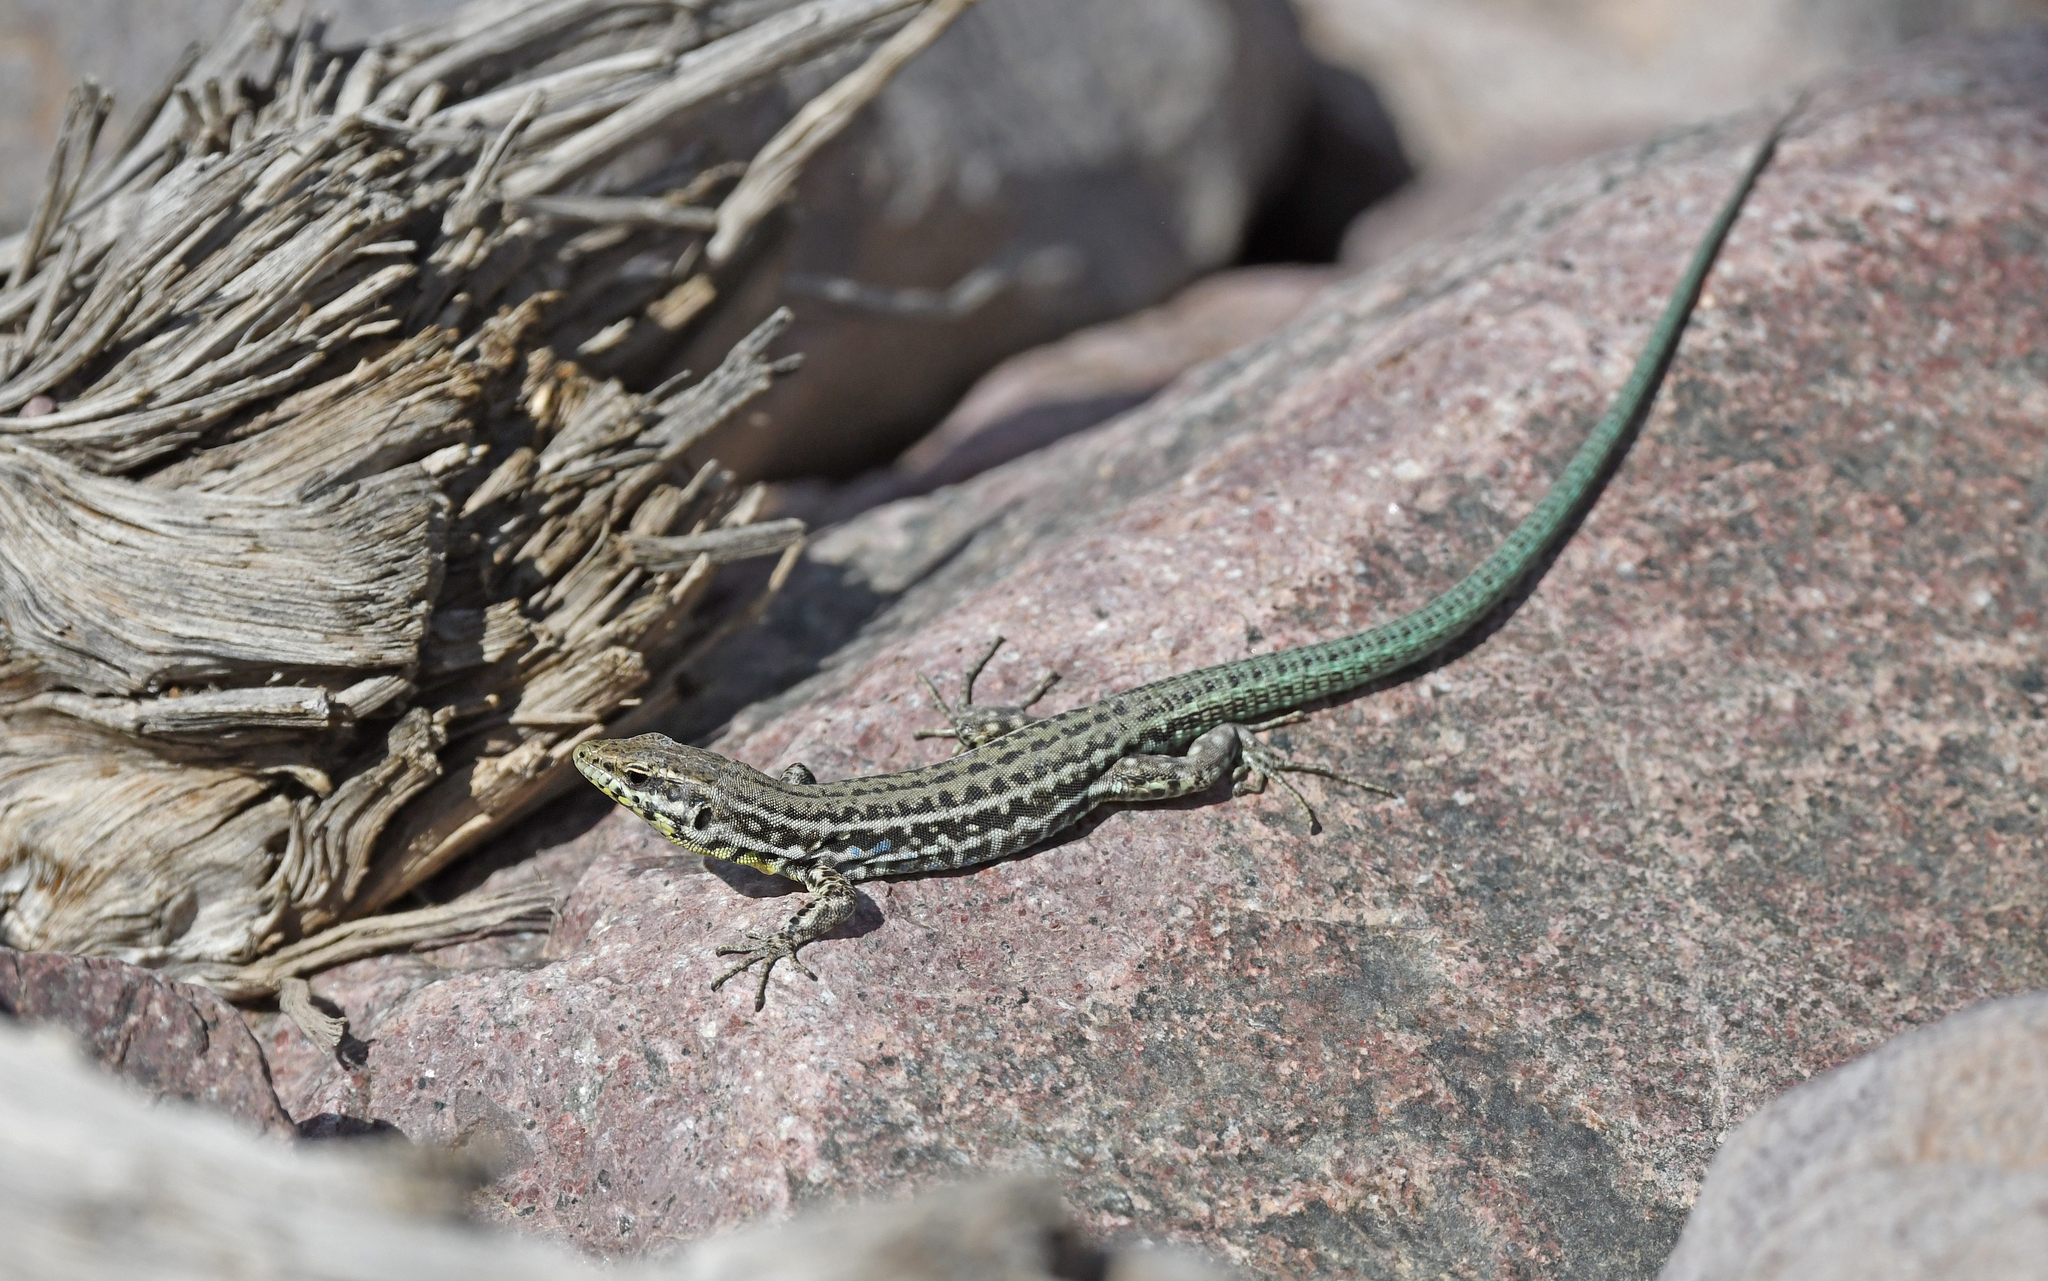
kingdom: Animalia
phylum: Chordata
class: Squamata
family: Lacertidae
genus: Podarcis
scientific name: Podarcis tiliguerta
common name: Tyrrhenian wall lizard
